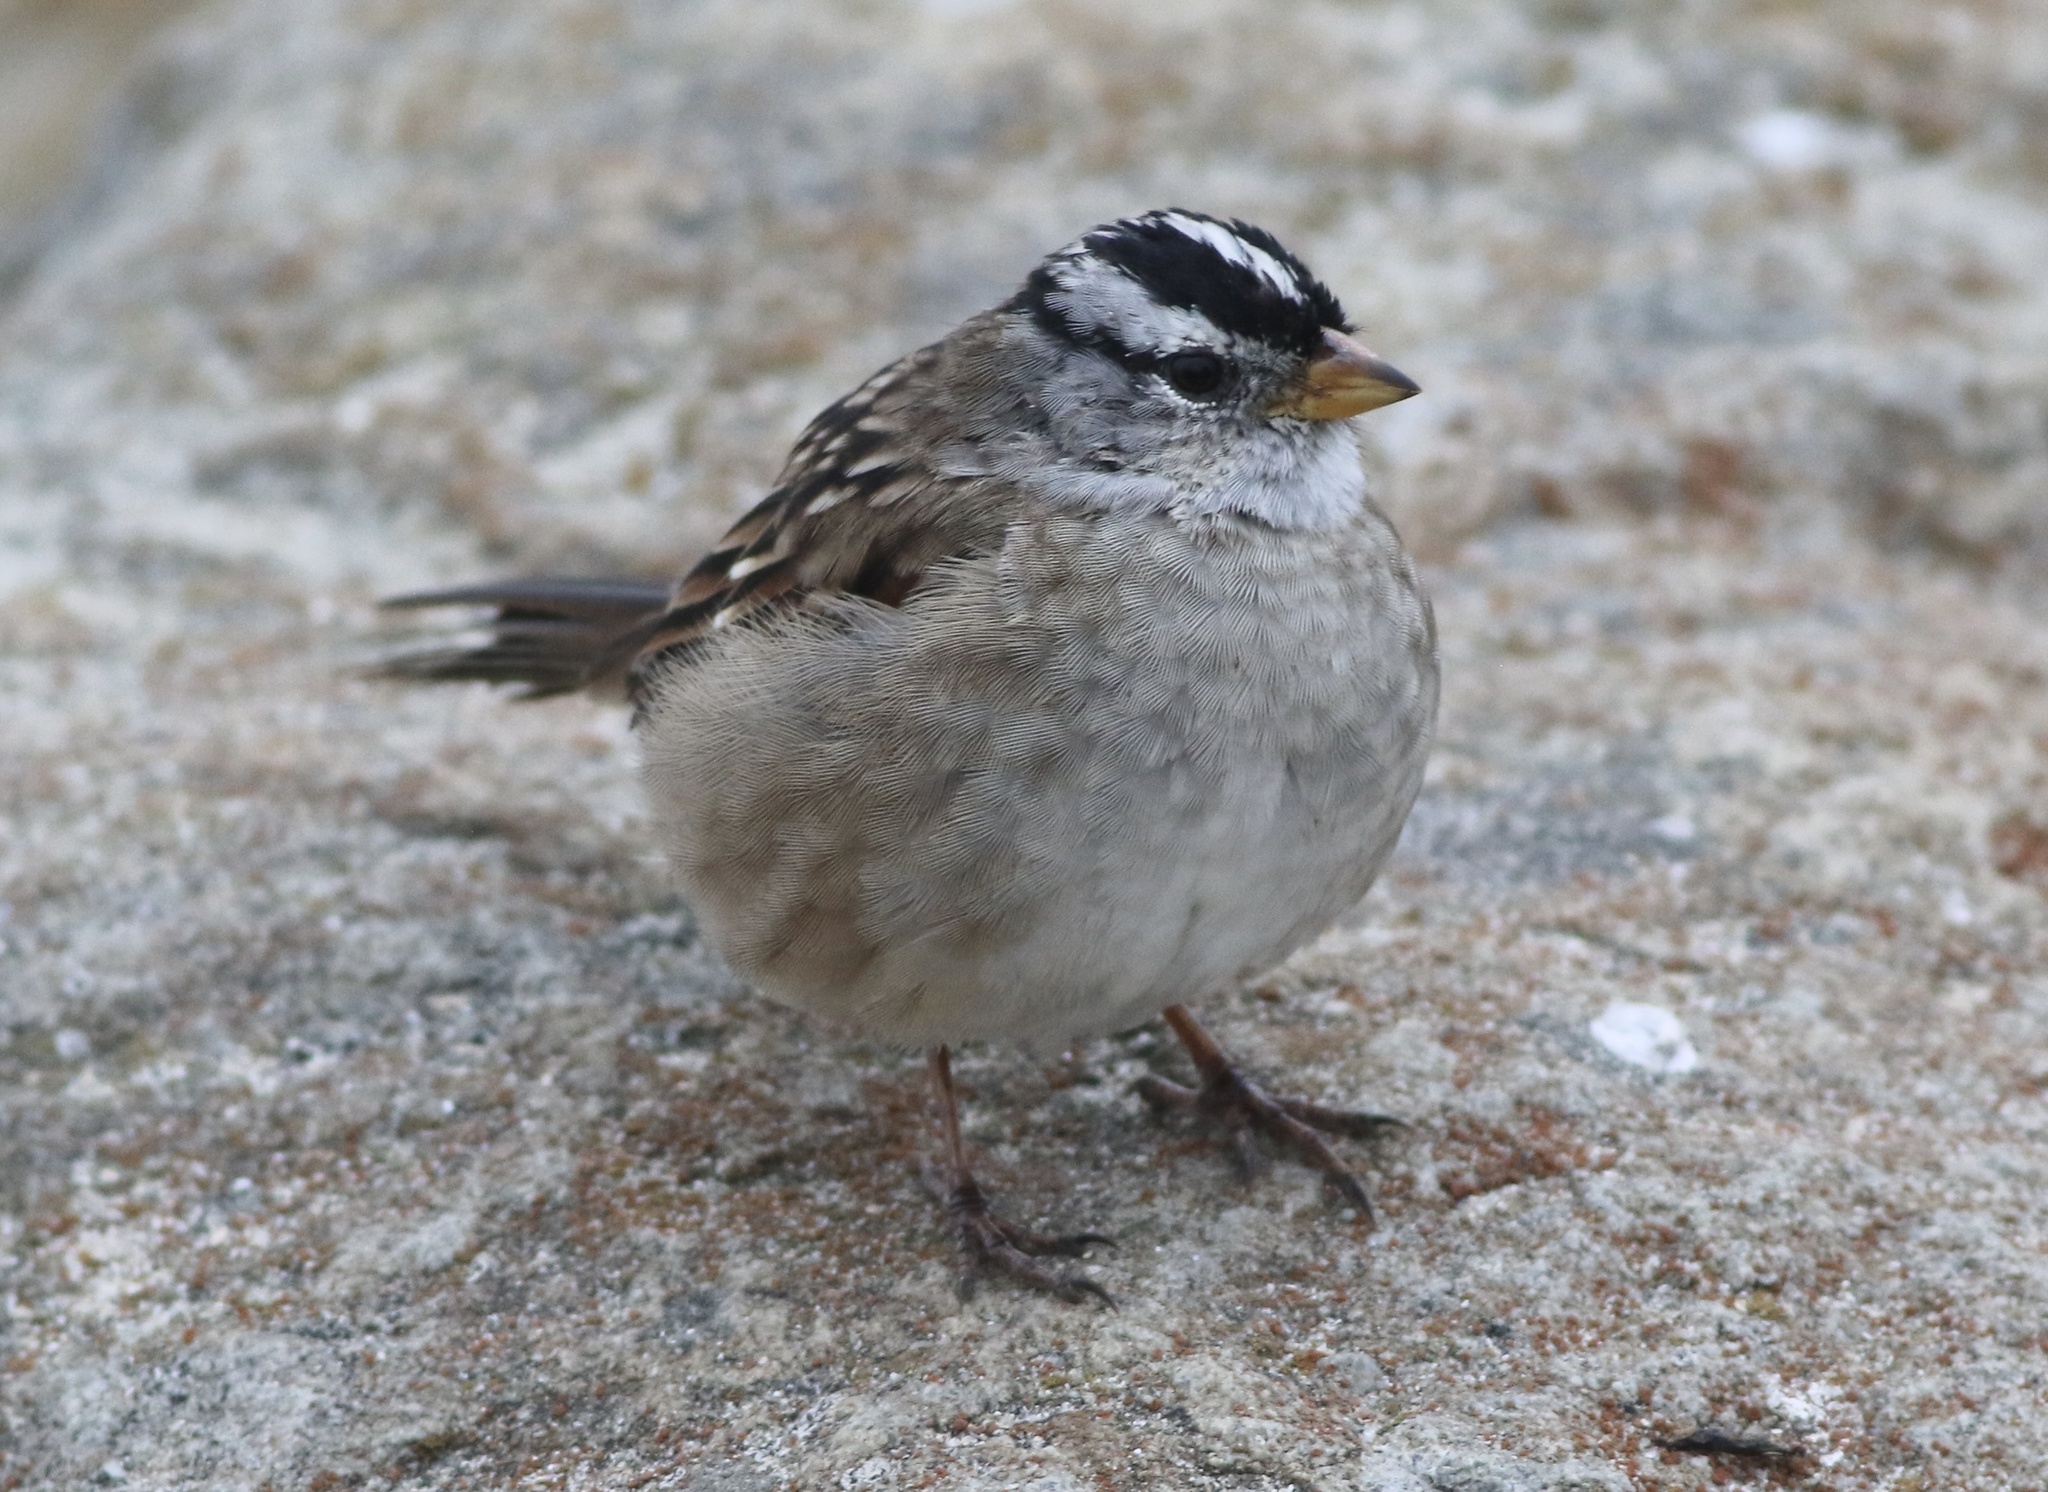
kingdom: Animalia
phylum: Chordata
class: Aves
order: Passeriformes
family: Passerellidae
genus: Zonotrichia
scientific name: Zonotrichia leucophrys
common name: White-crowned sparrow
